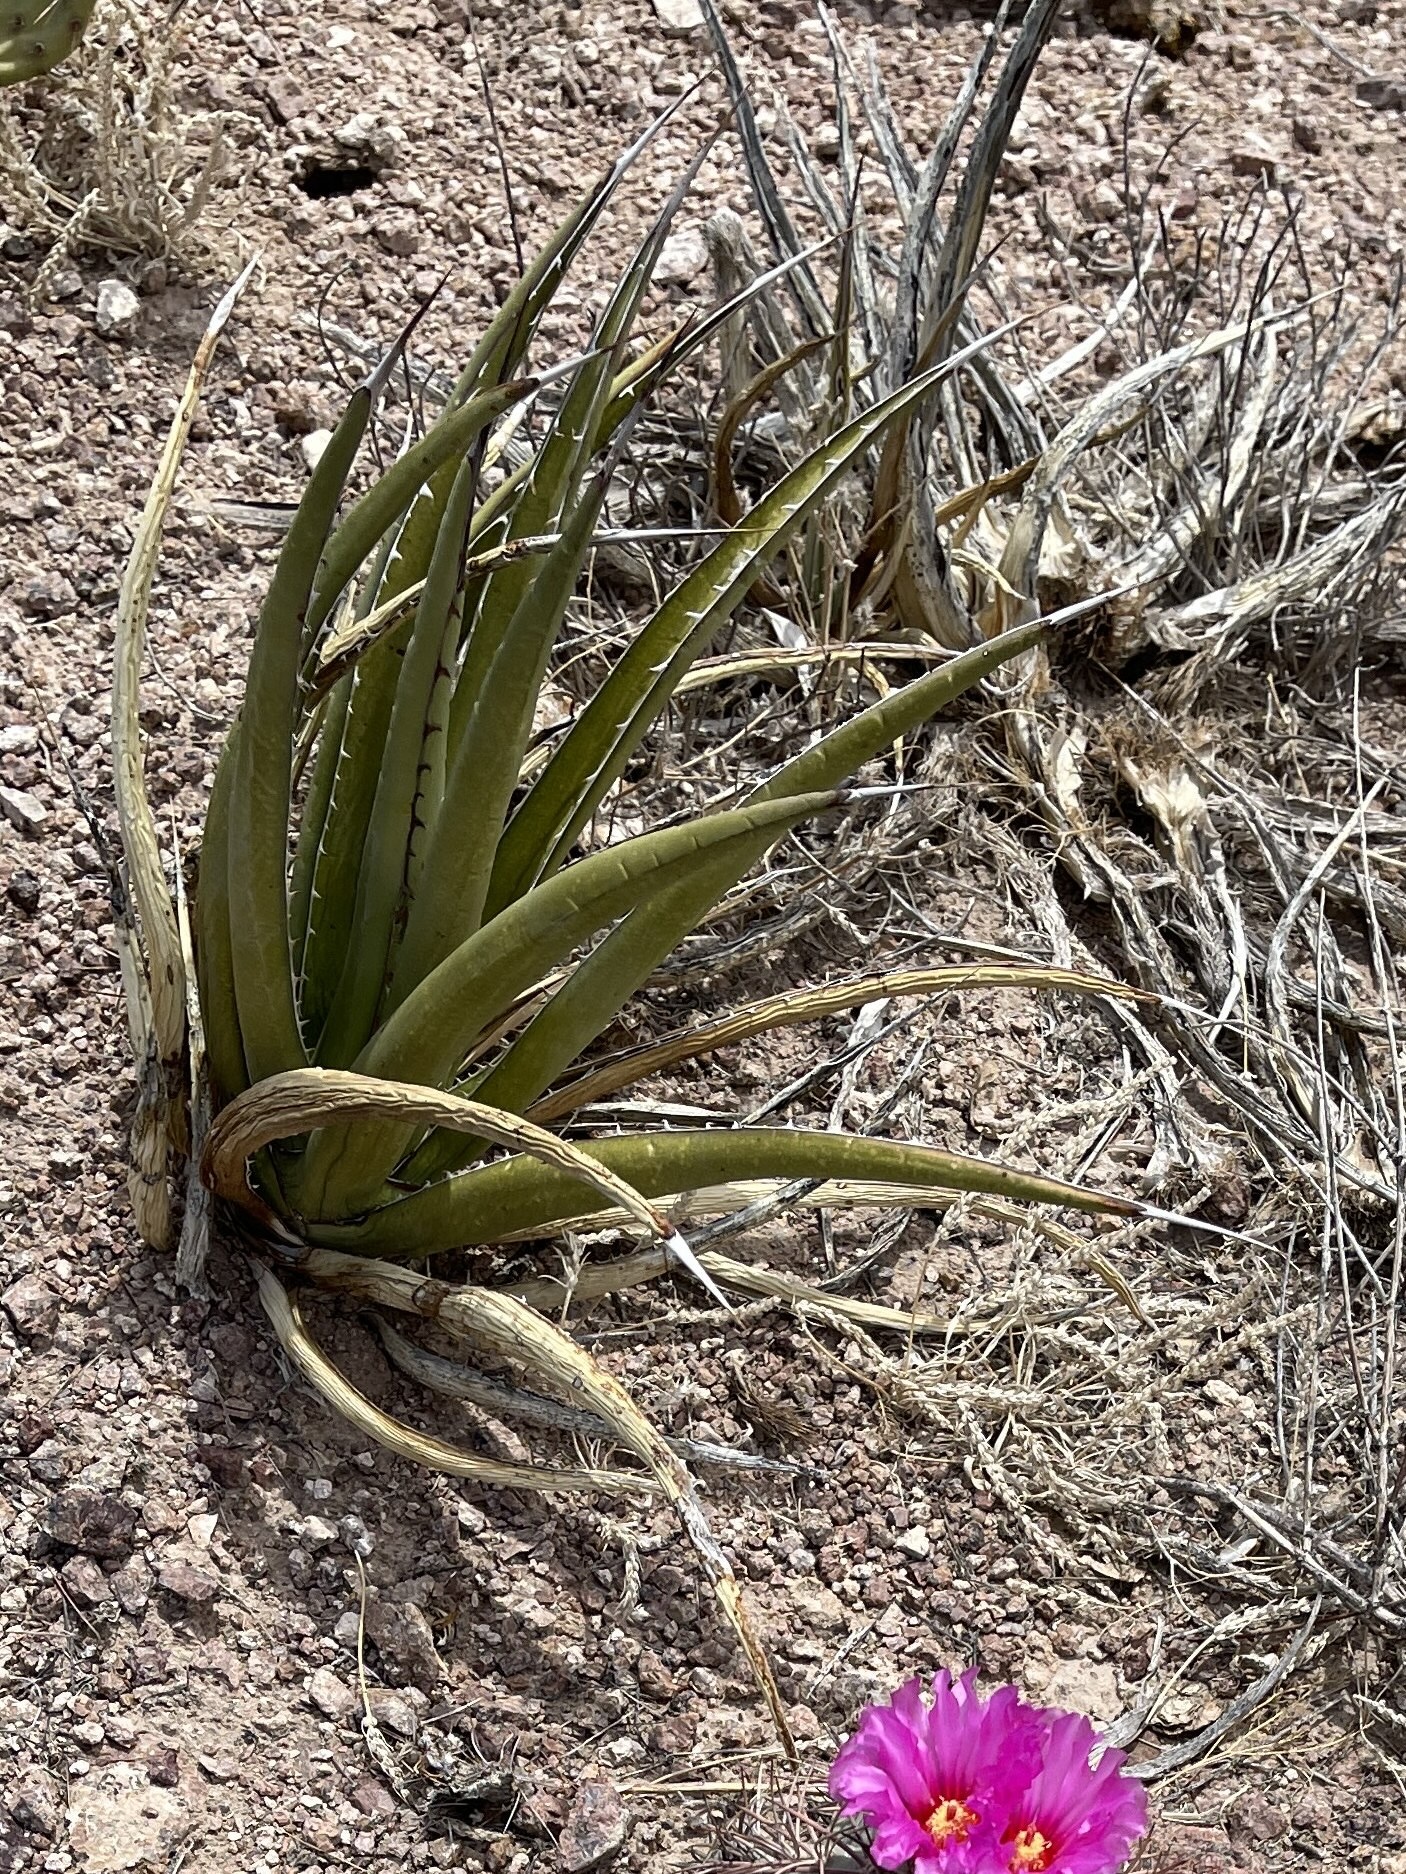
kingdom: Plantae
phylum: Tracheophyta
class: Liliopsida
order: Asparagales
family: Asparagaceae
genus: Agave
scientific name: Agave lechuguilla
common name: Lecheguilla agave
